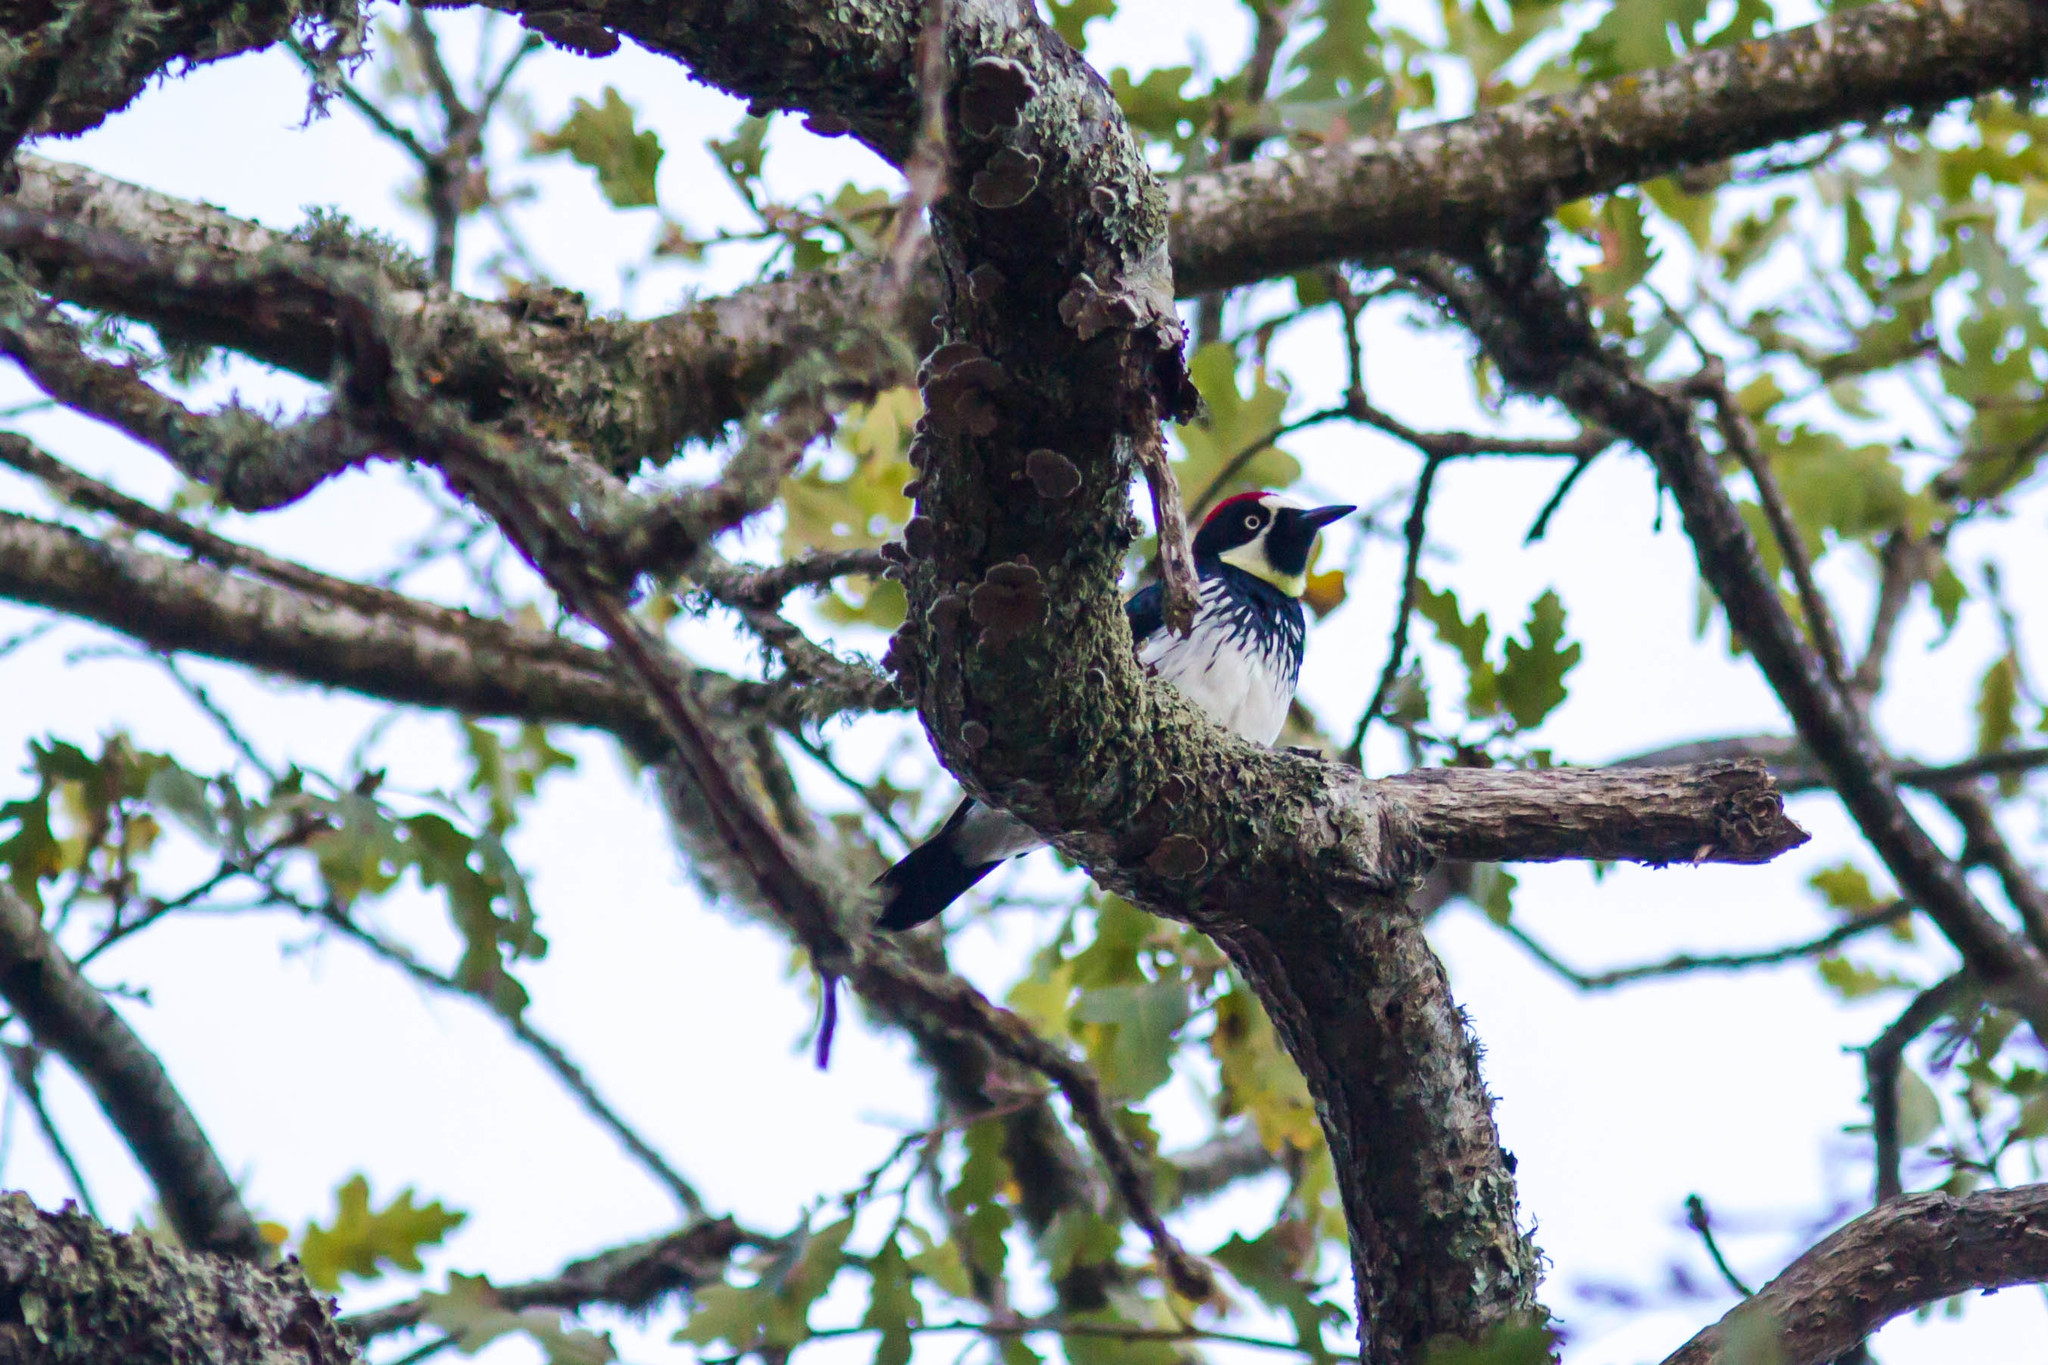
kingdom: Animalia
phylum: Chordata
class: Aves
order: Piciformes
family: Picidae
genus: Melanerpes
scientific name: Melanerpes formicivorus
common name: Acorn woodpecker
